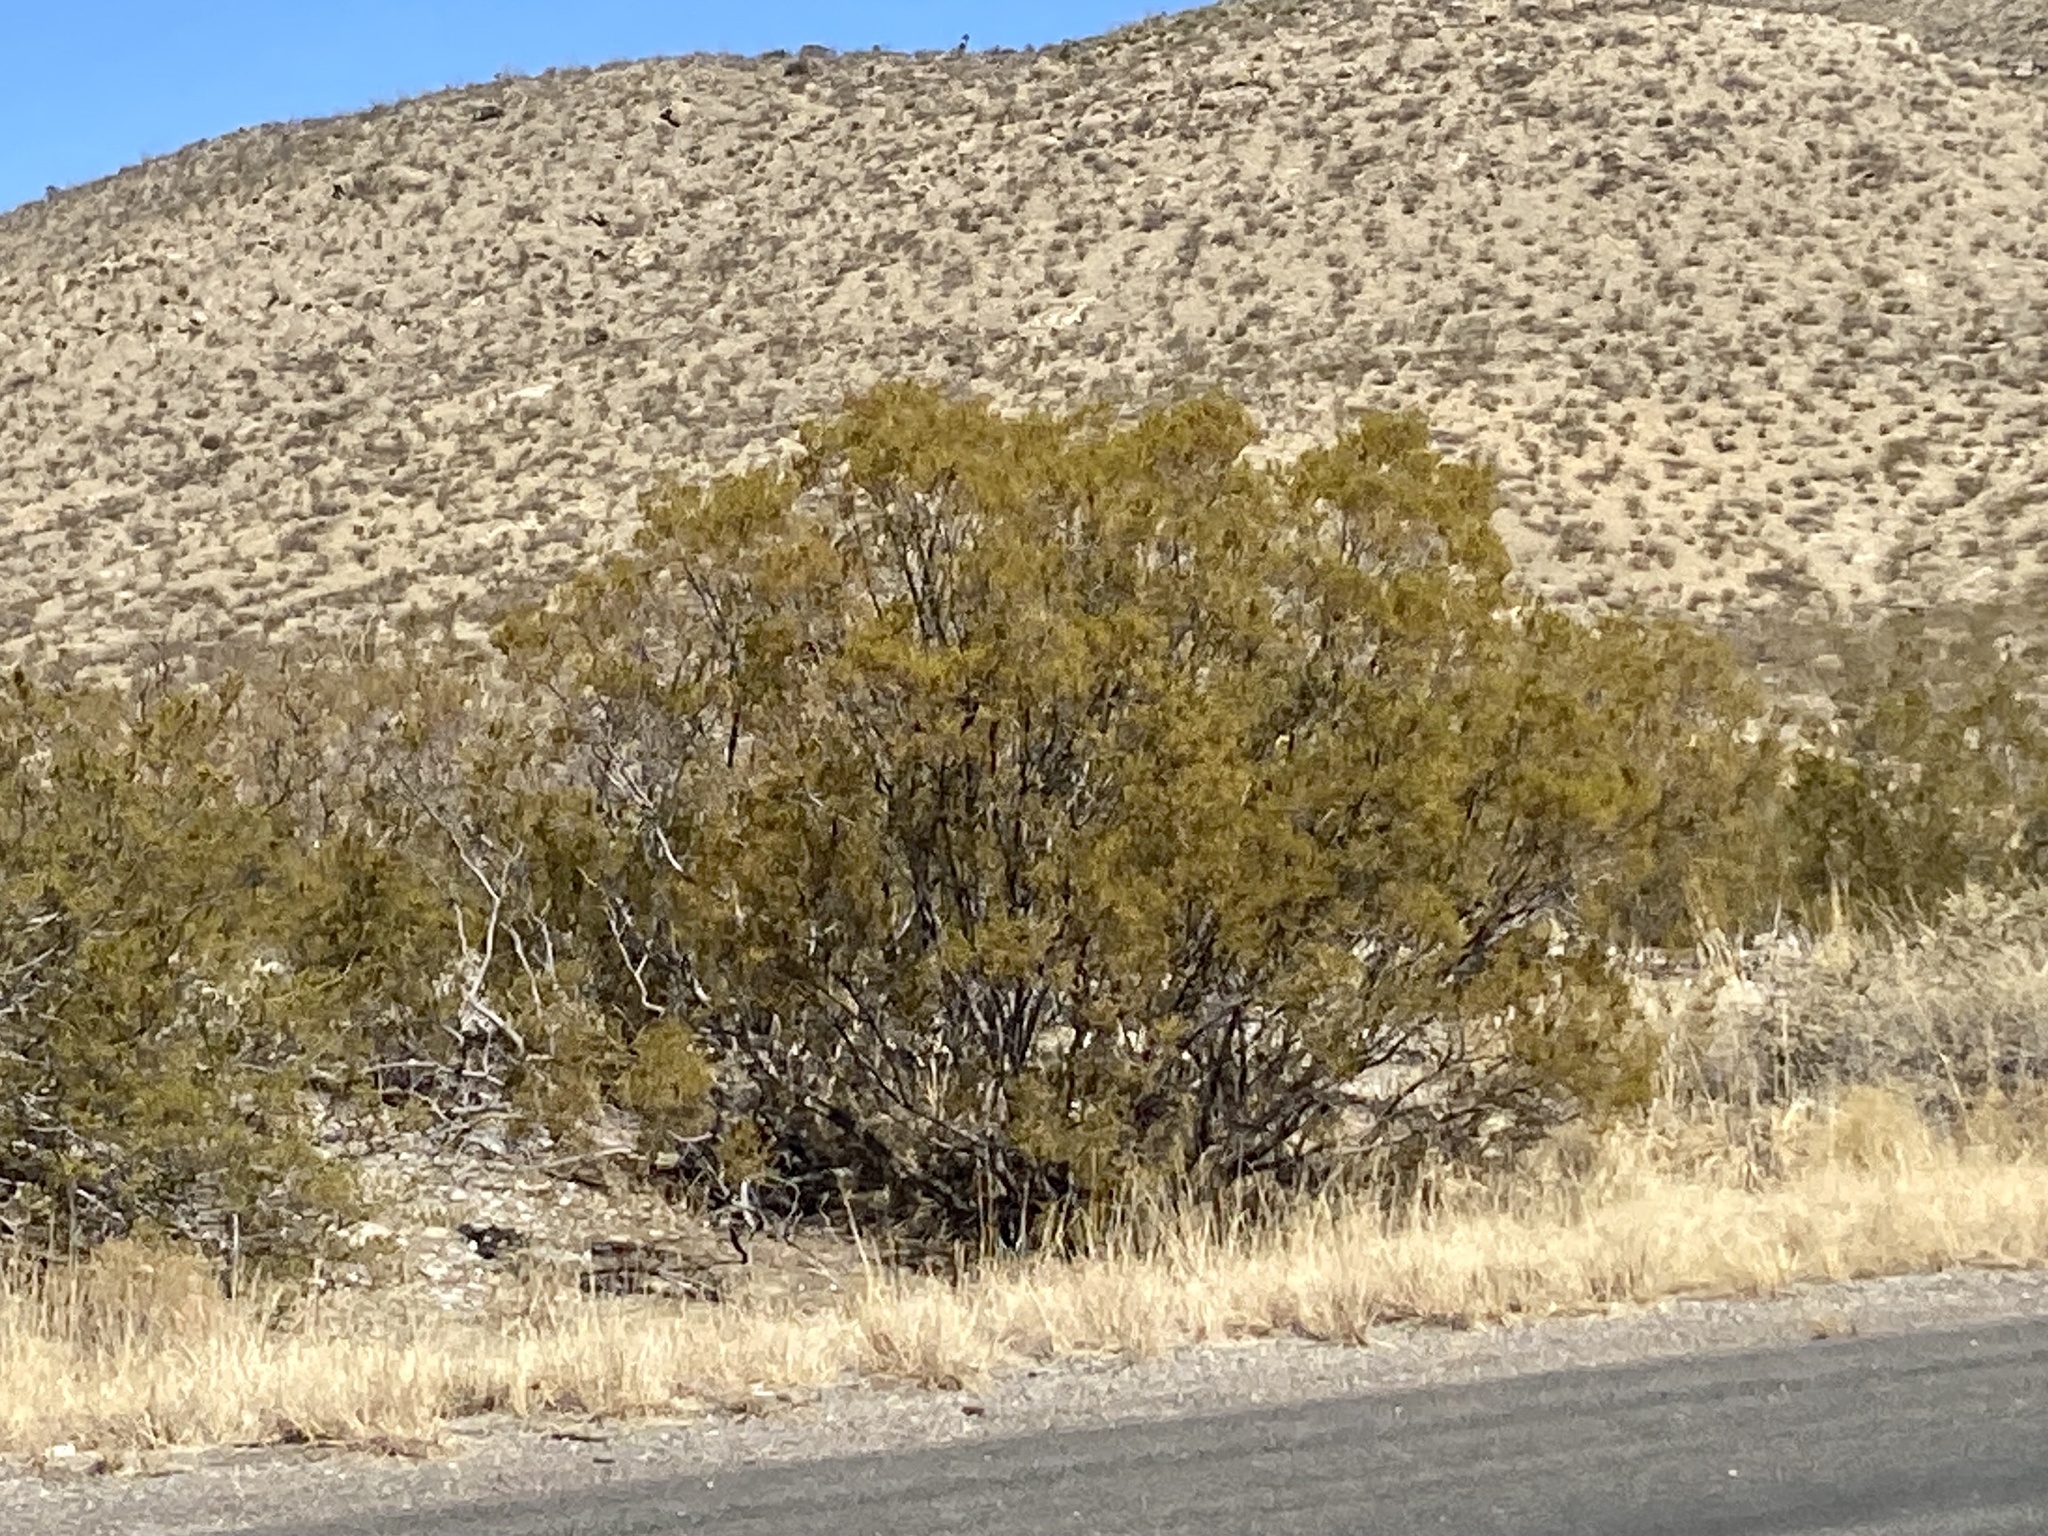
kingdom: Plantae
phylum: Tracheophyta
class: Magnoliopsida
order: Zygophyllales
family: Zygophyllaceae
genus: Larrea
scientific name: Larrea tridentata
